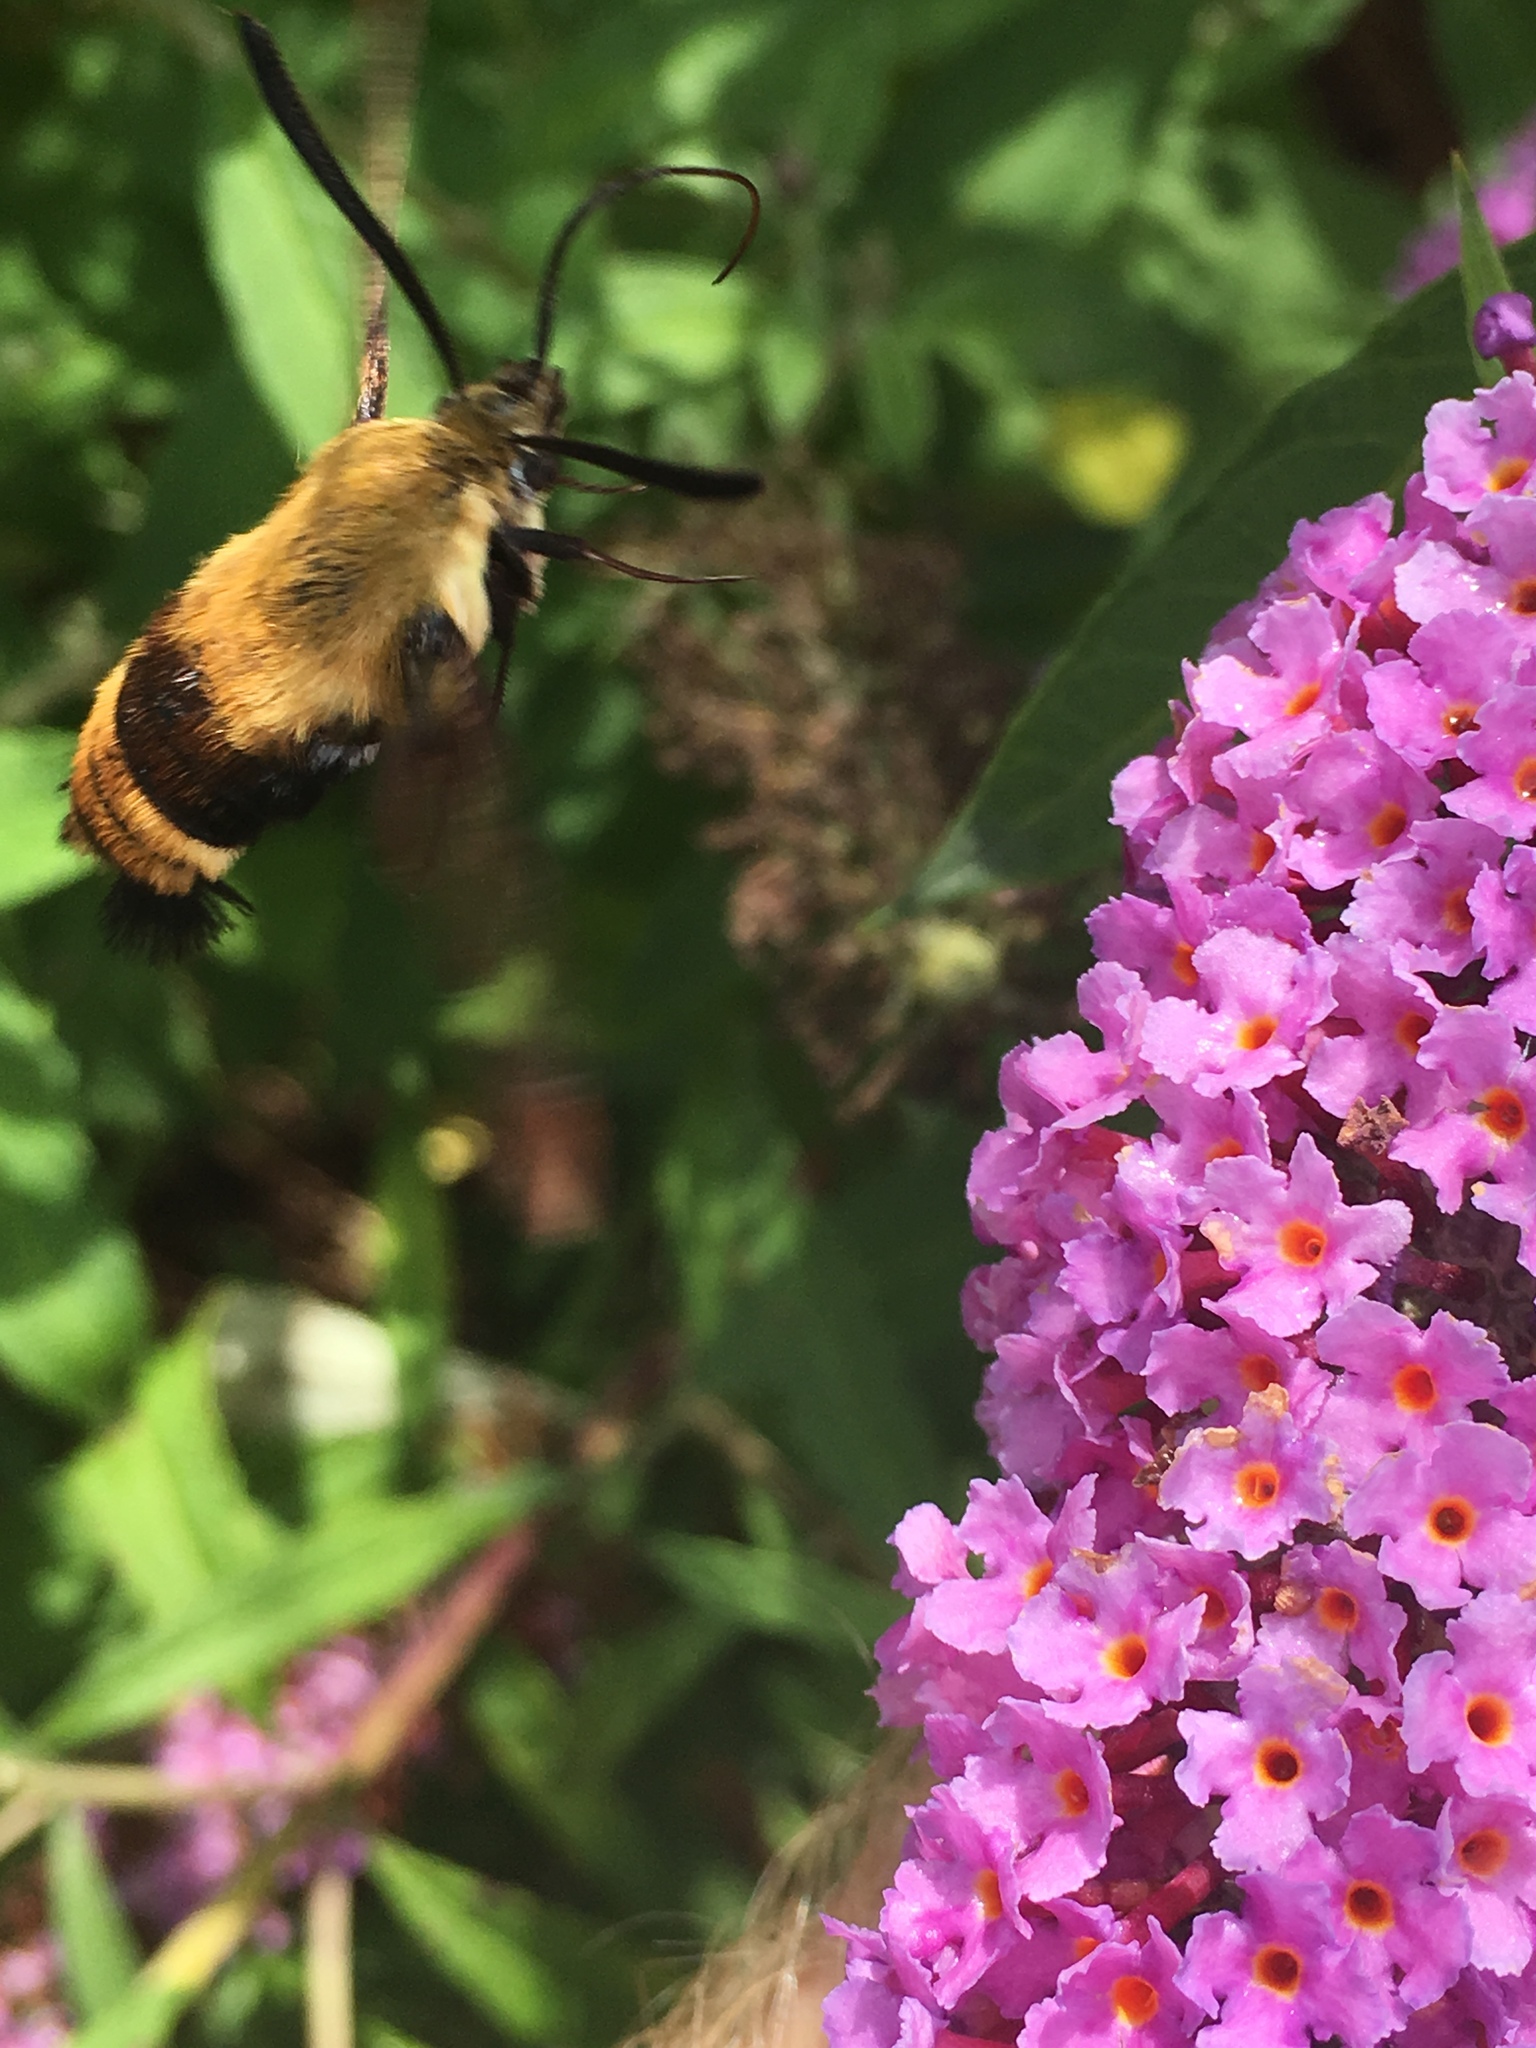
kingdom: Animalia
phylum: Arthropoda
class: Insecta
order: Lepidoptera
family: Sphingidae
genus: Hemaris
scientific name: Hemaris diffinis
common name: Bumblebee moth
